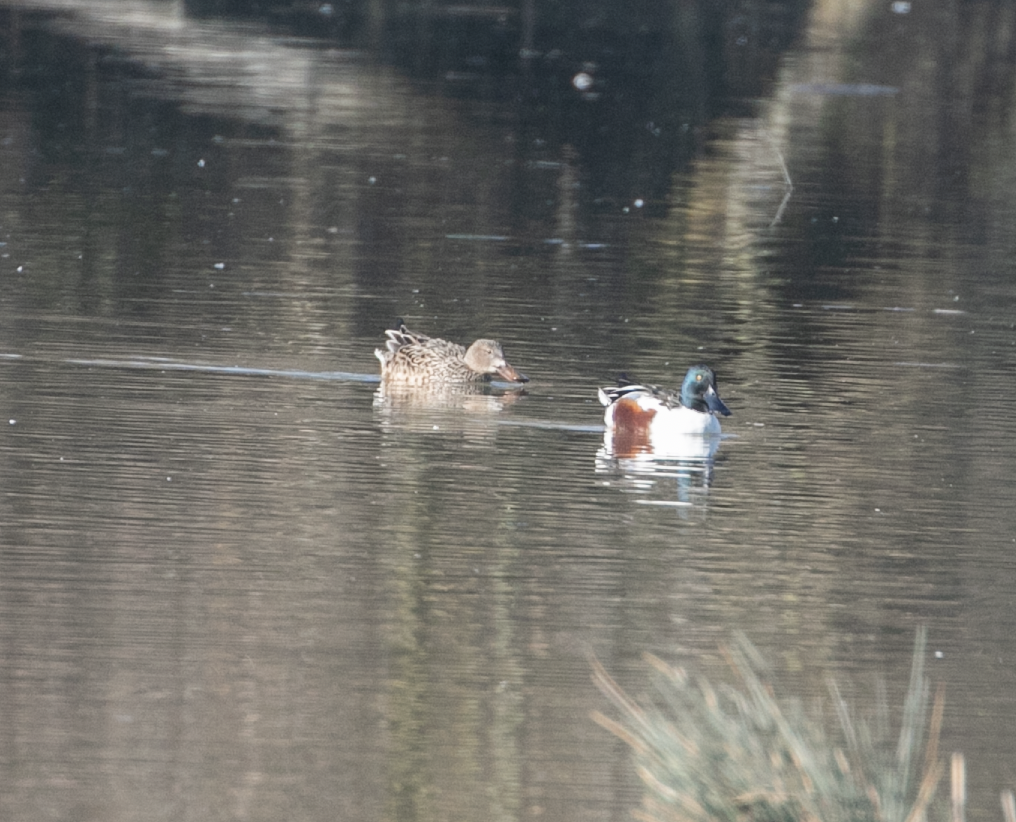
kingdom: Animalia
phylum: Chordata
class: Aves
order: Anseriformes
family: Anatidae
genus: Spatula
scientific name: Spatula clypeata
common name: Northern shoveler
